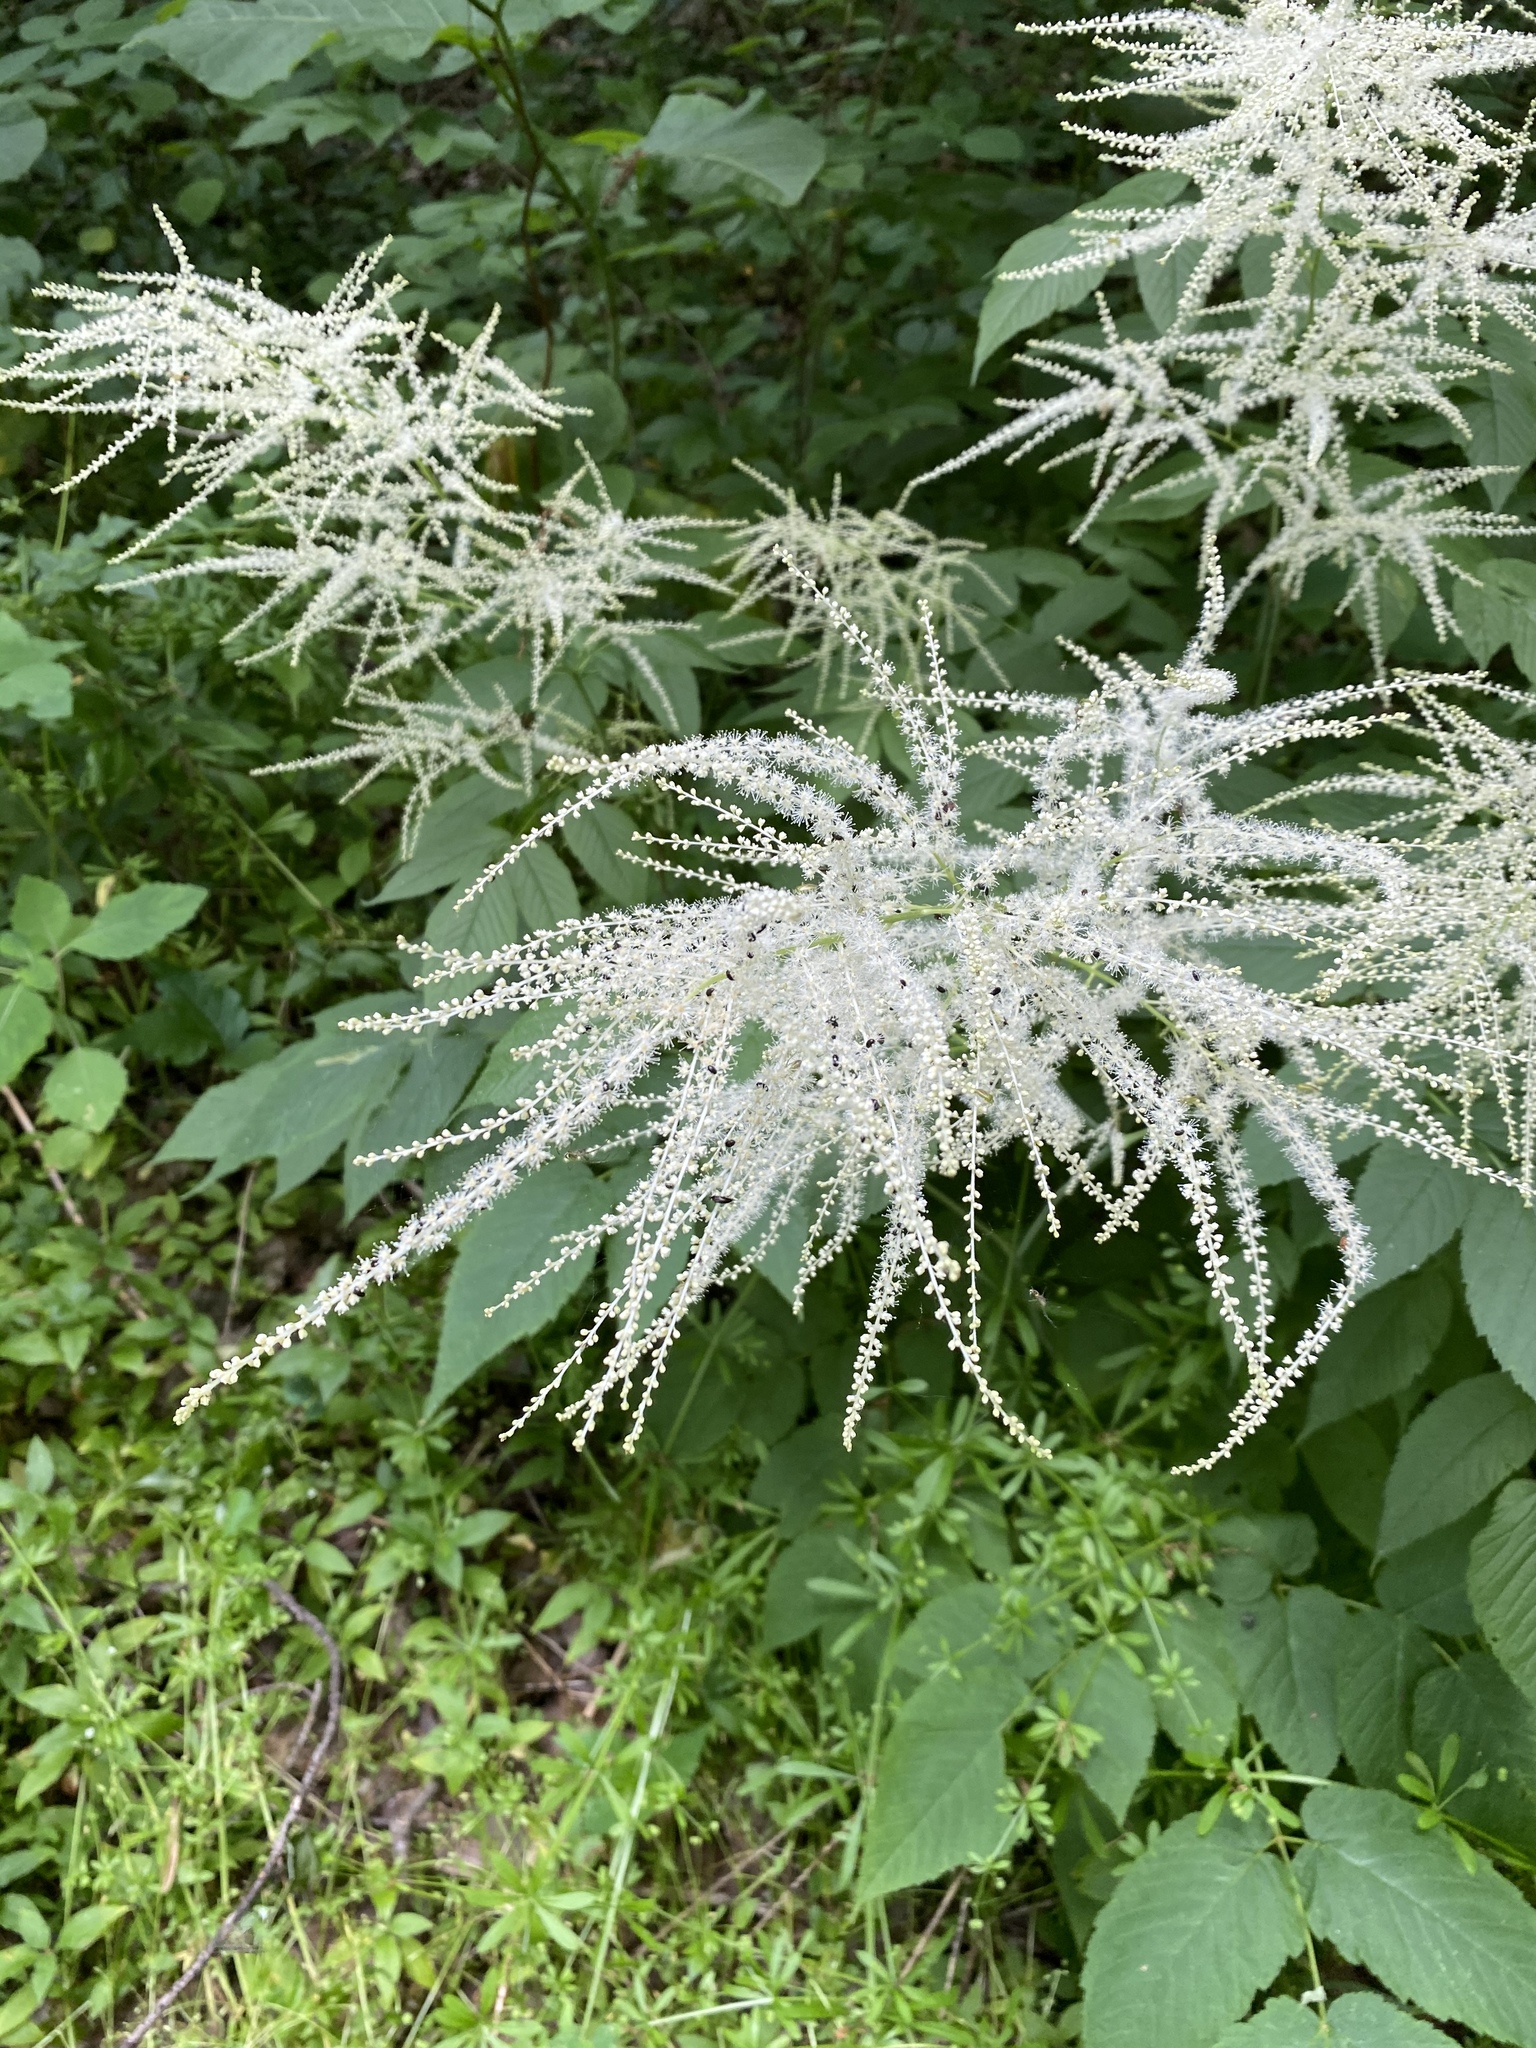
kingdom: Plantae
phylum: Tracheophyta
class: Magnoliopsida
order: Rosales
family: Rosaceae
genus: Aruncus
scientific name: Aruncus dioicus
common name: Buck's-beard
